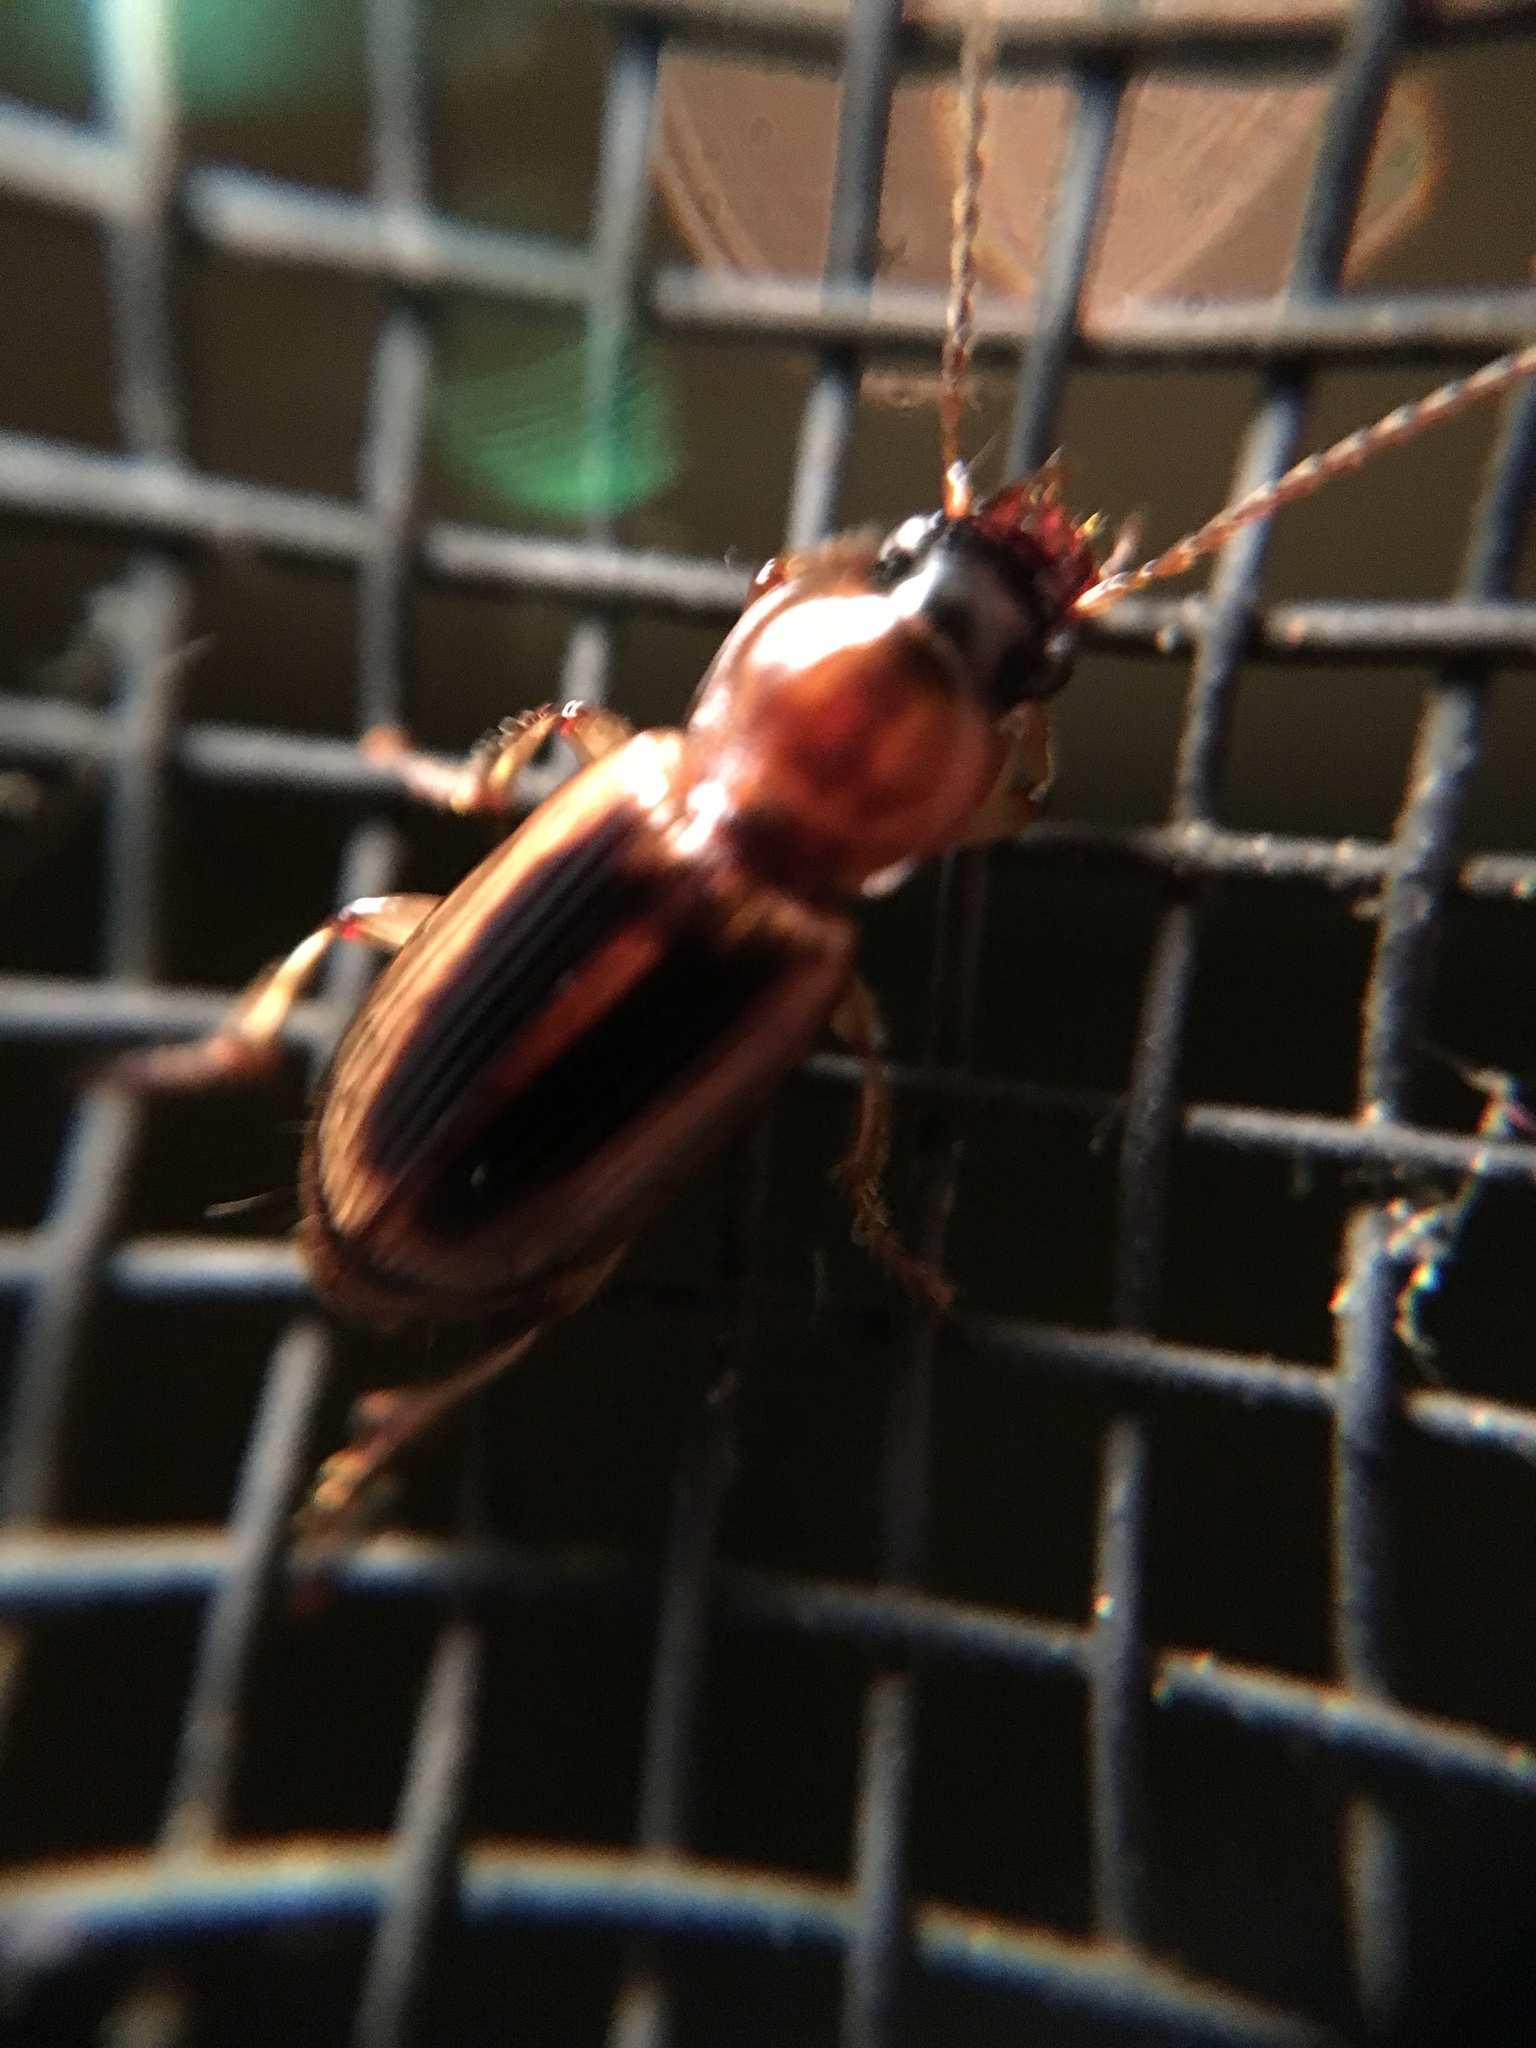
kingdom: Animalia
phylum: Arthropoda
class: Insecta
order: Coleoptera
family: Carabidae
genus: Stenolophus
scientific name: Stenolophus lecontei
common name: Leconte's seedcorn beetle
